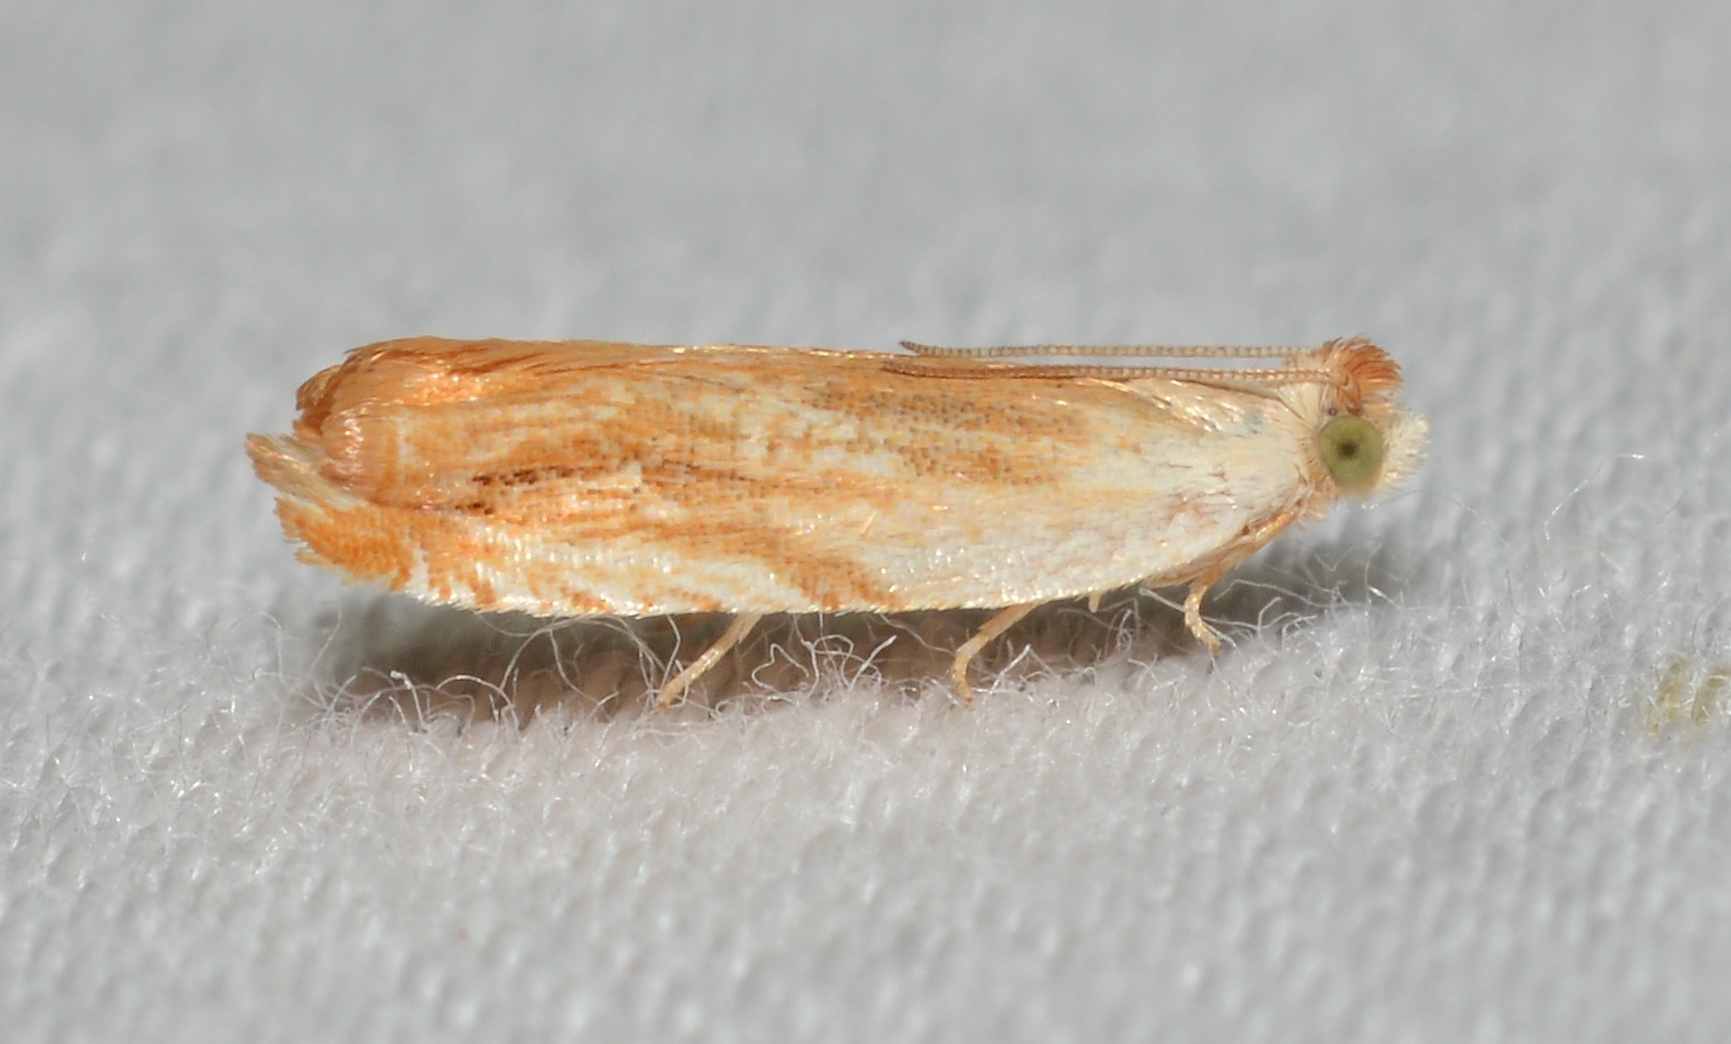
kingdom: Animalia
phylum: Arthropoda
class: Insecta
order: Lepidoptera
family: Tortricidae
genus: Ancylis
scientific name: Ancylis platanana
